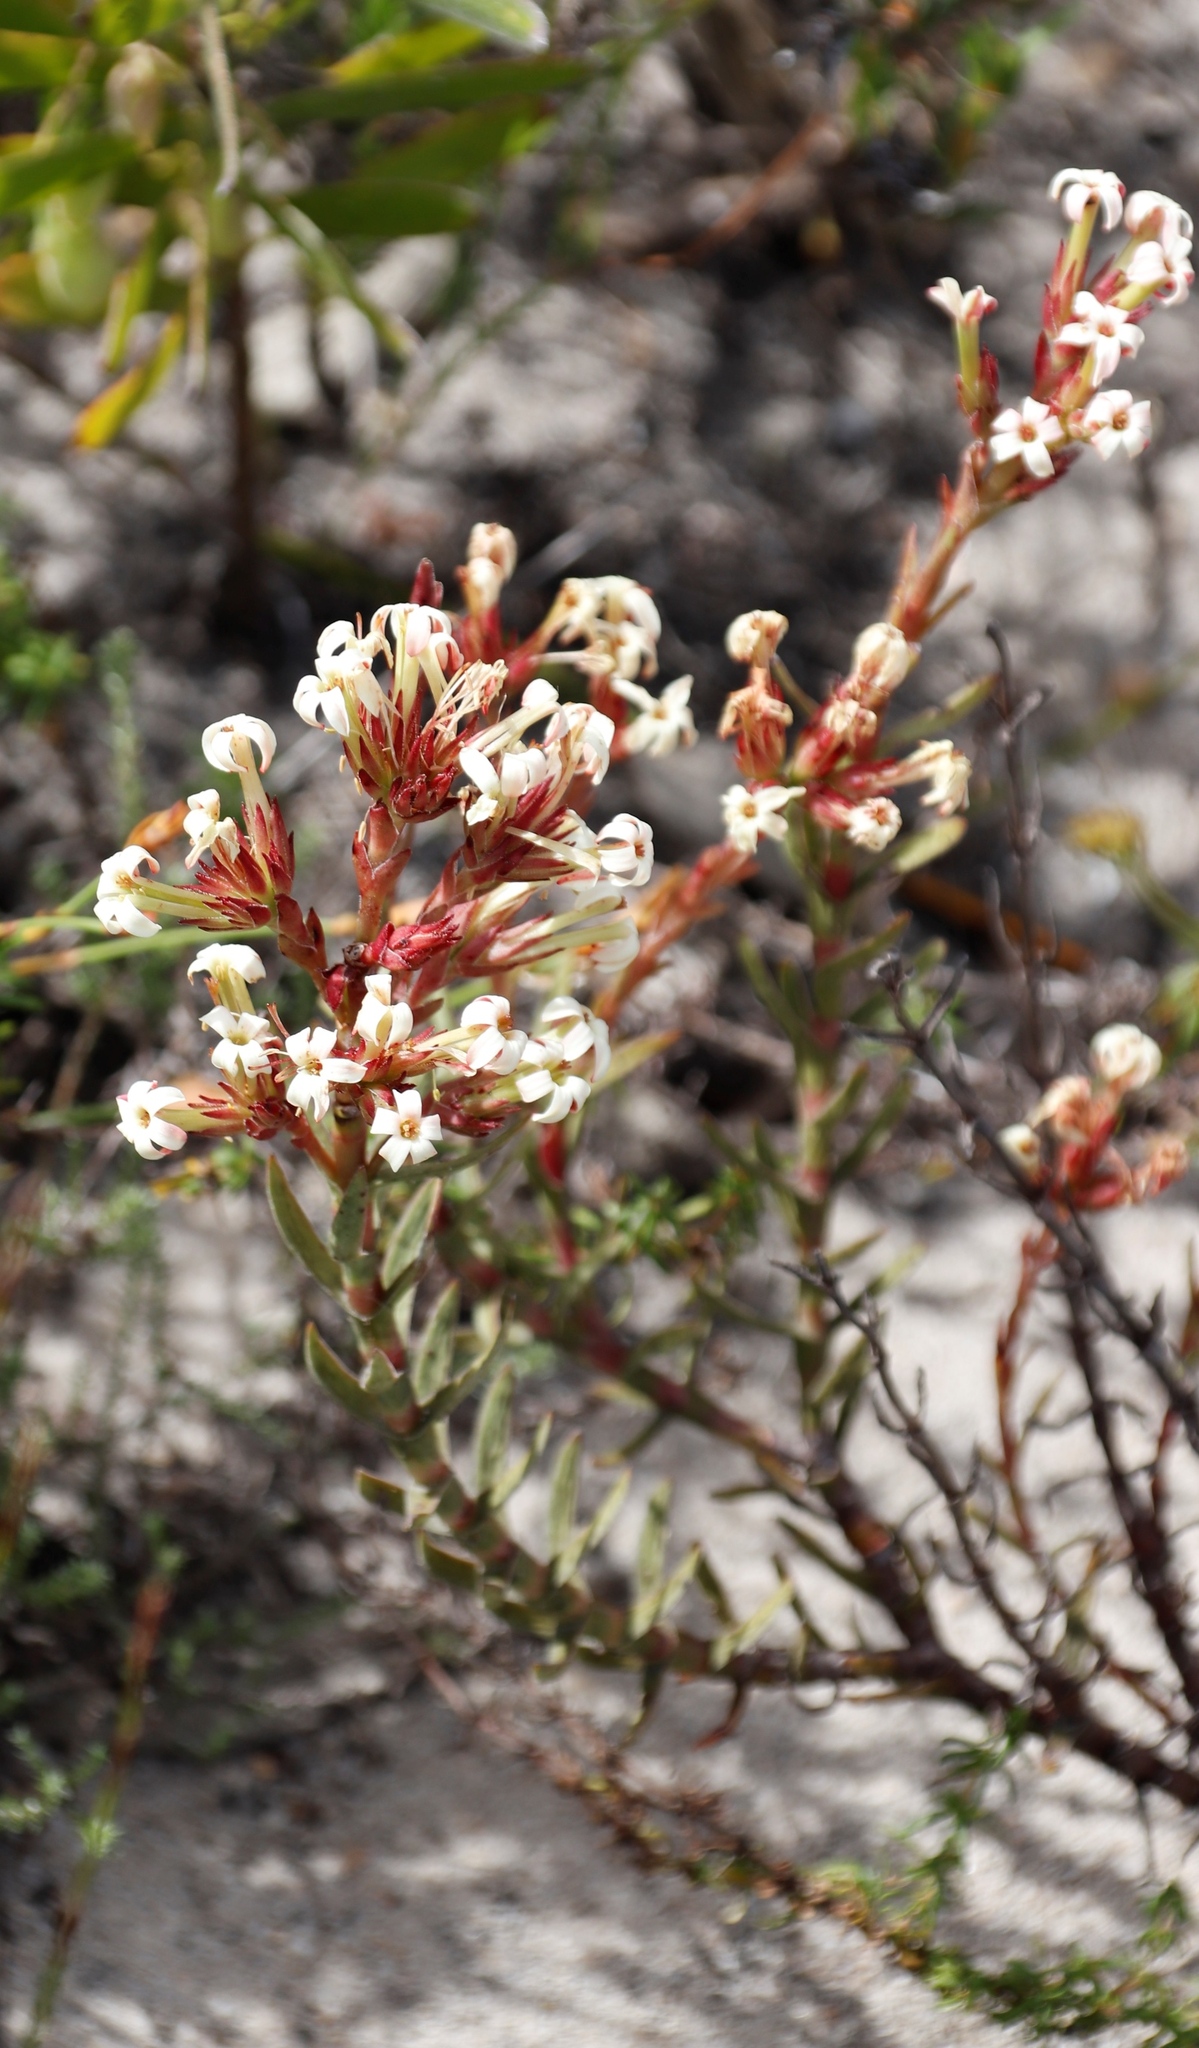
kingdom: Plantae
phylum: Tracheophyta
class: Magnoliopsida
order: Saxifragales
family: Crassulaceae
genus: Crassula
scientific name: Crassula fascicularis
